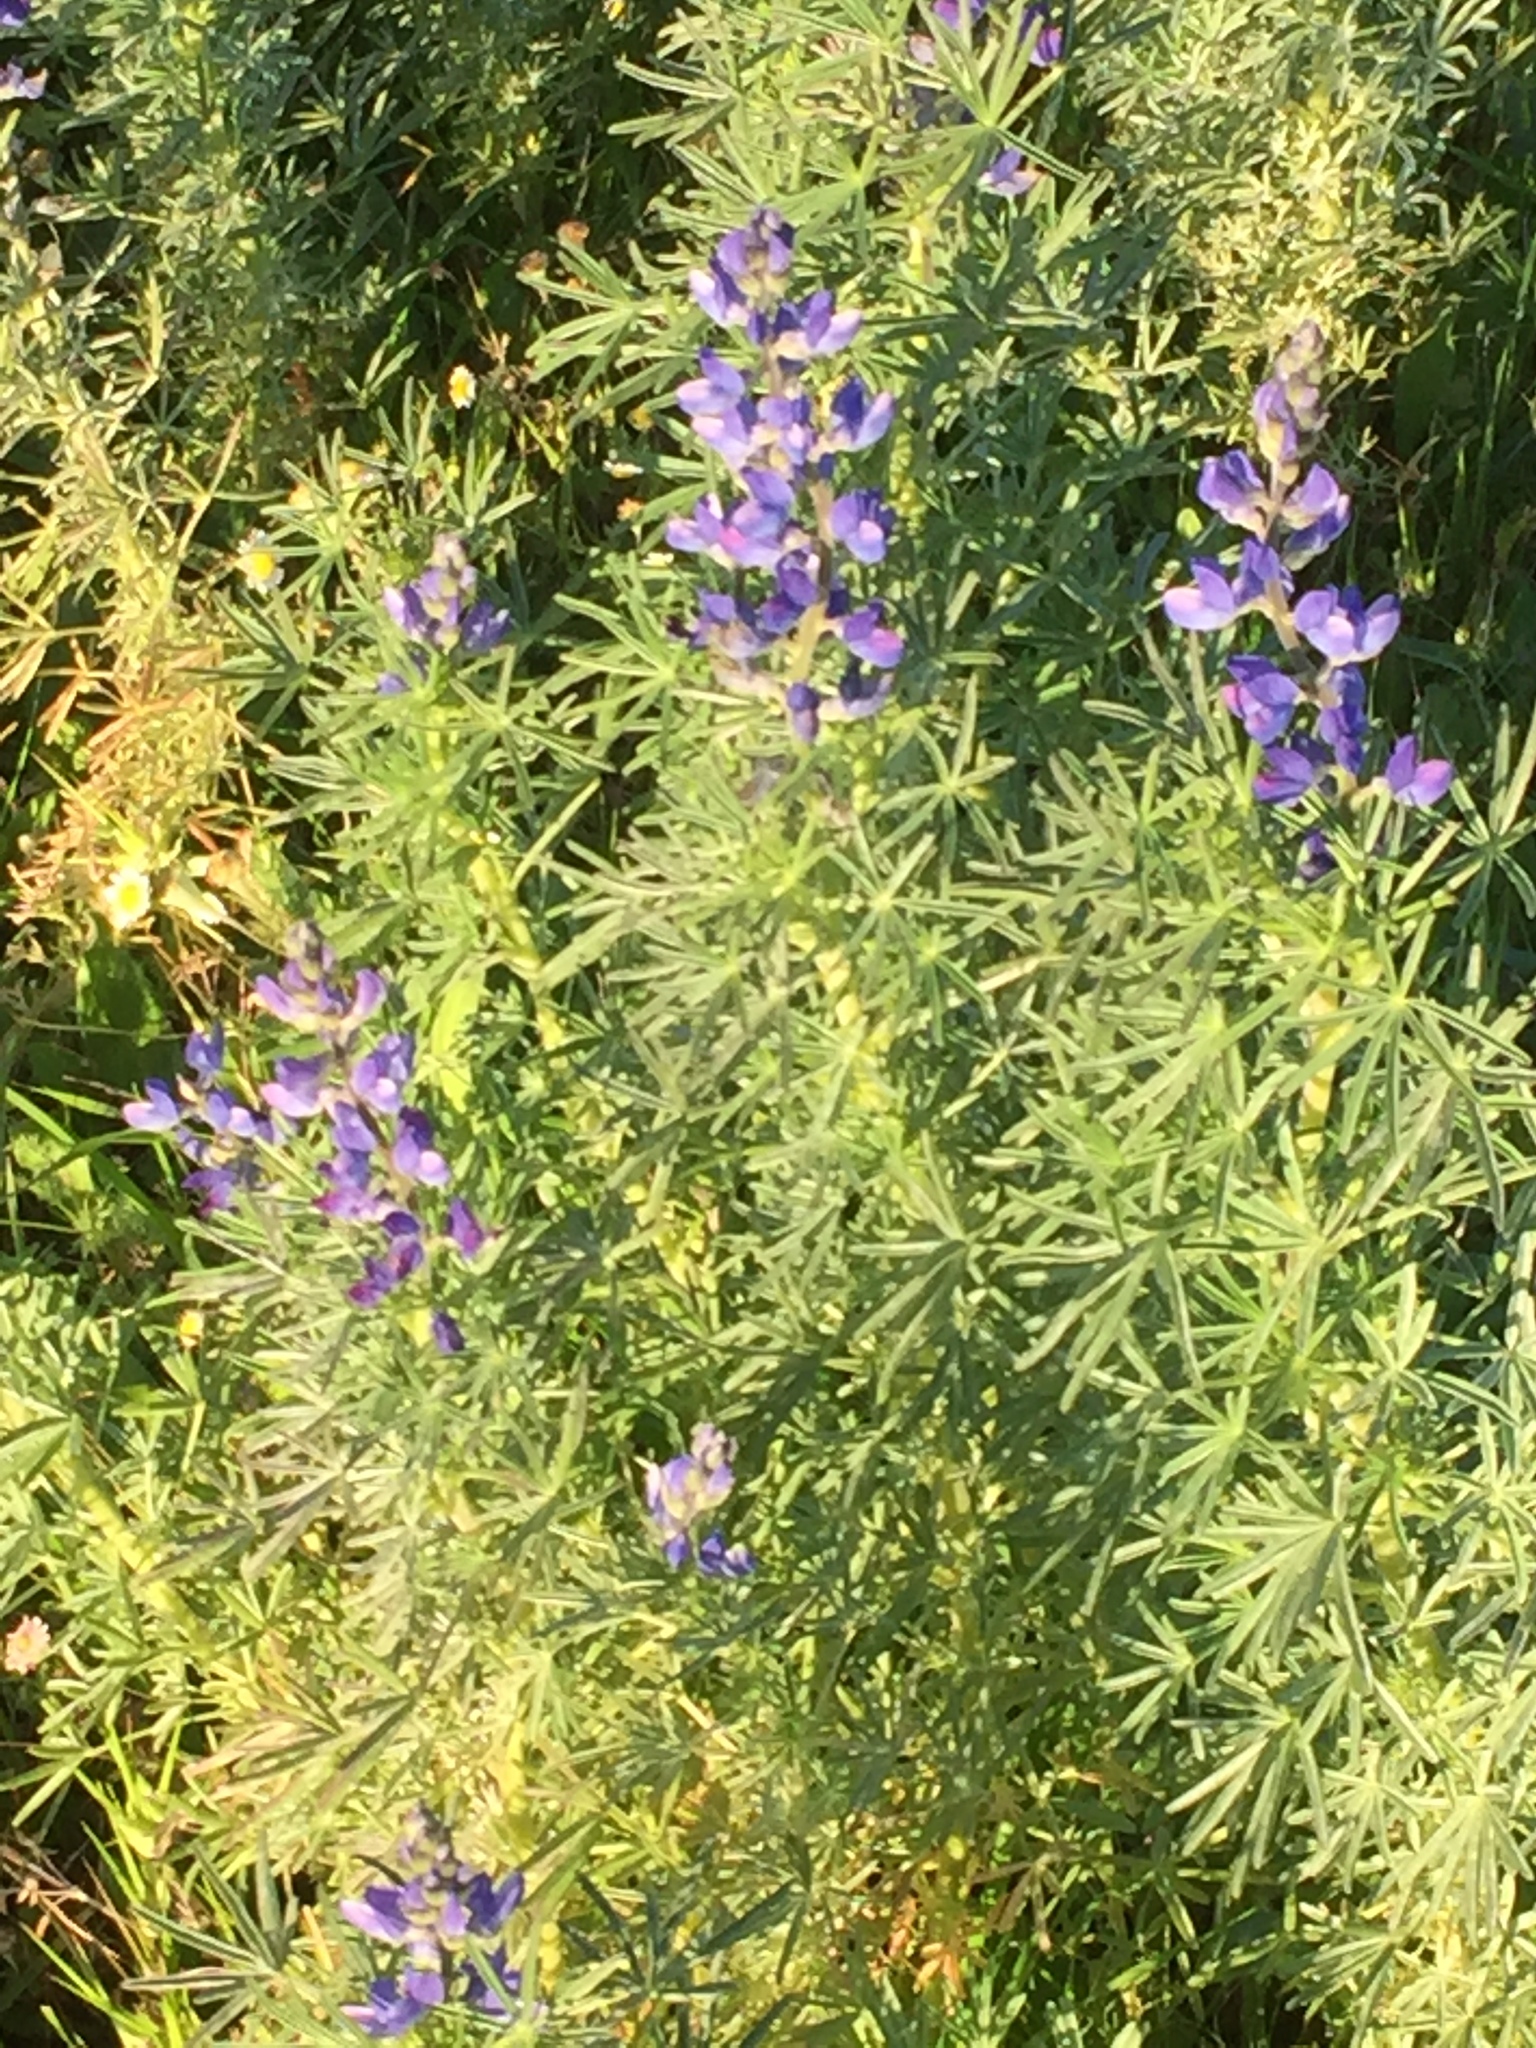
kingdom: Plantae
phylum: Tracheophyta
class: Magnoliopsida
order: Fabales
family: Fabaceae
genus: Lupinus
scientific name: Lupinus angustifolius
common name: Narrow-leaved lupin
